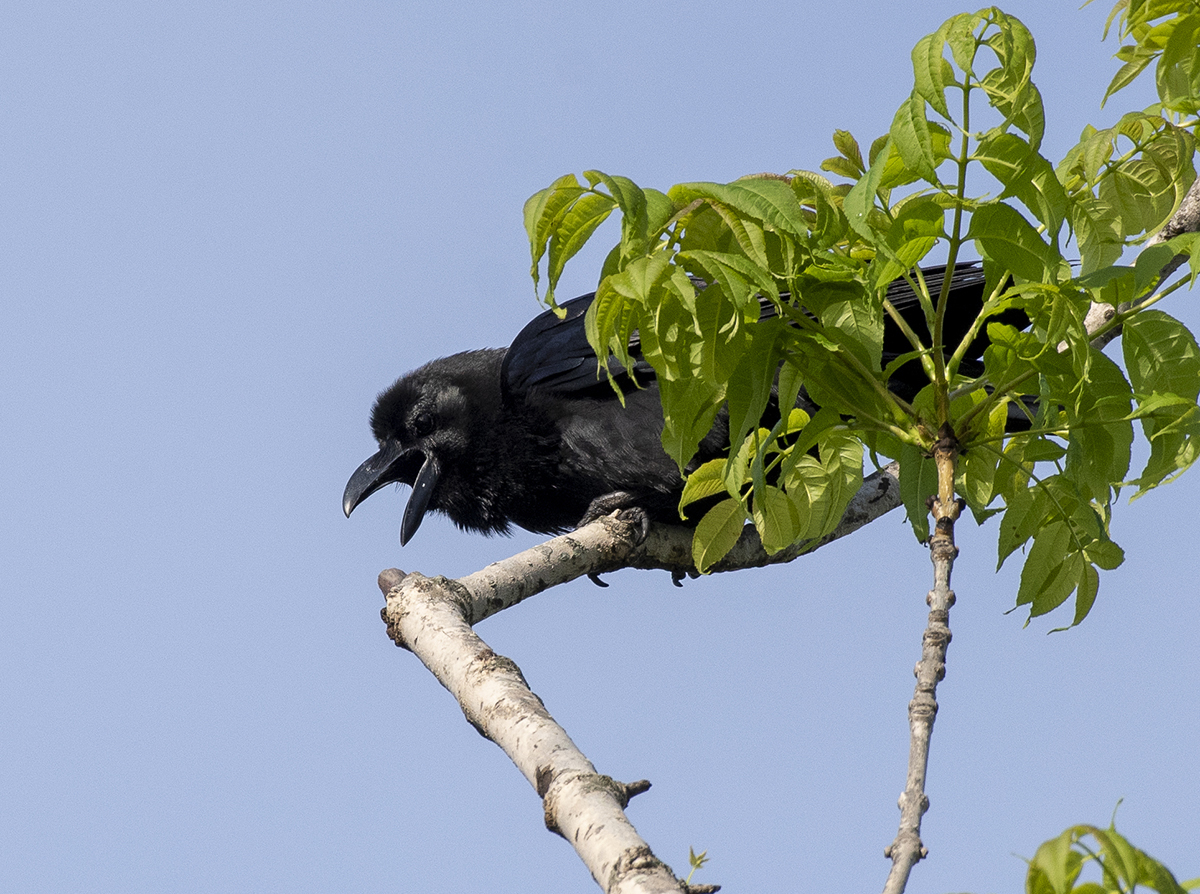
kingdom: Animalia
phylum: Chordata
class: Aves
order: Passeriformes
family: Corvidae
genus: Corvus
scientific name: Corvus macrorhynchos
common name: Large-billed crow
